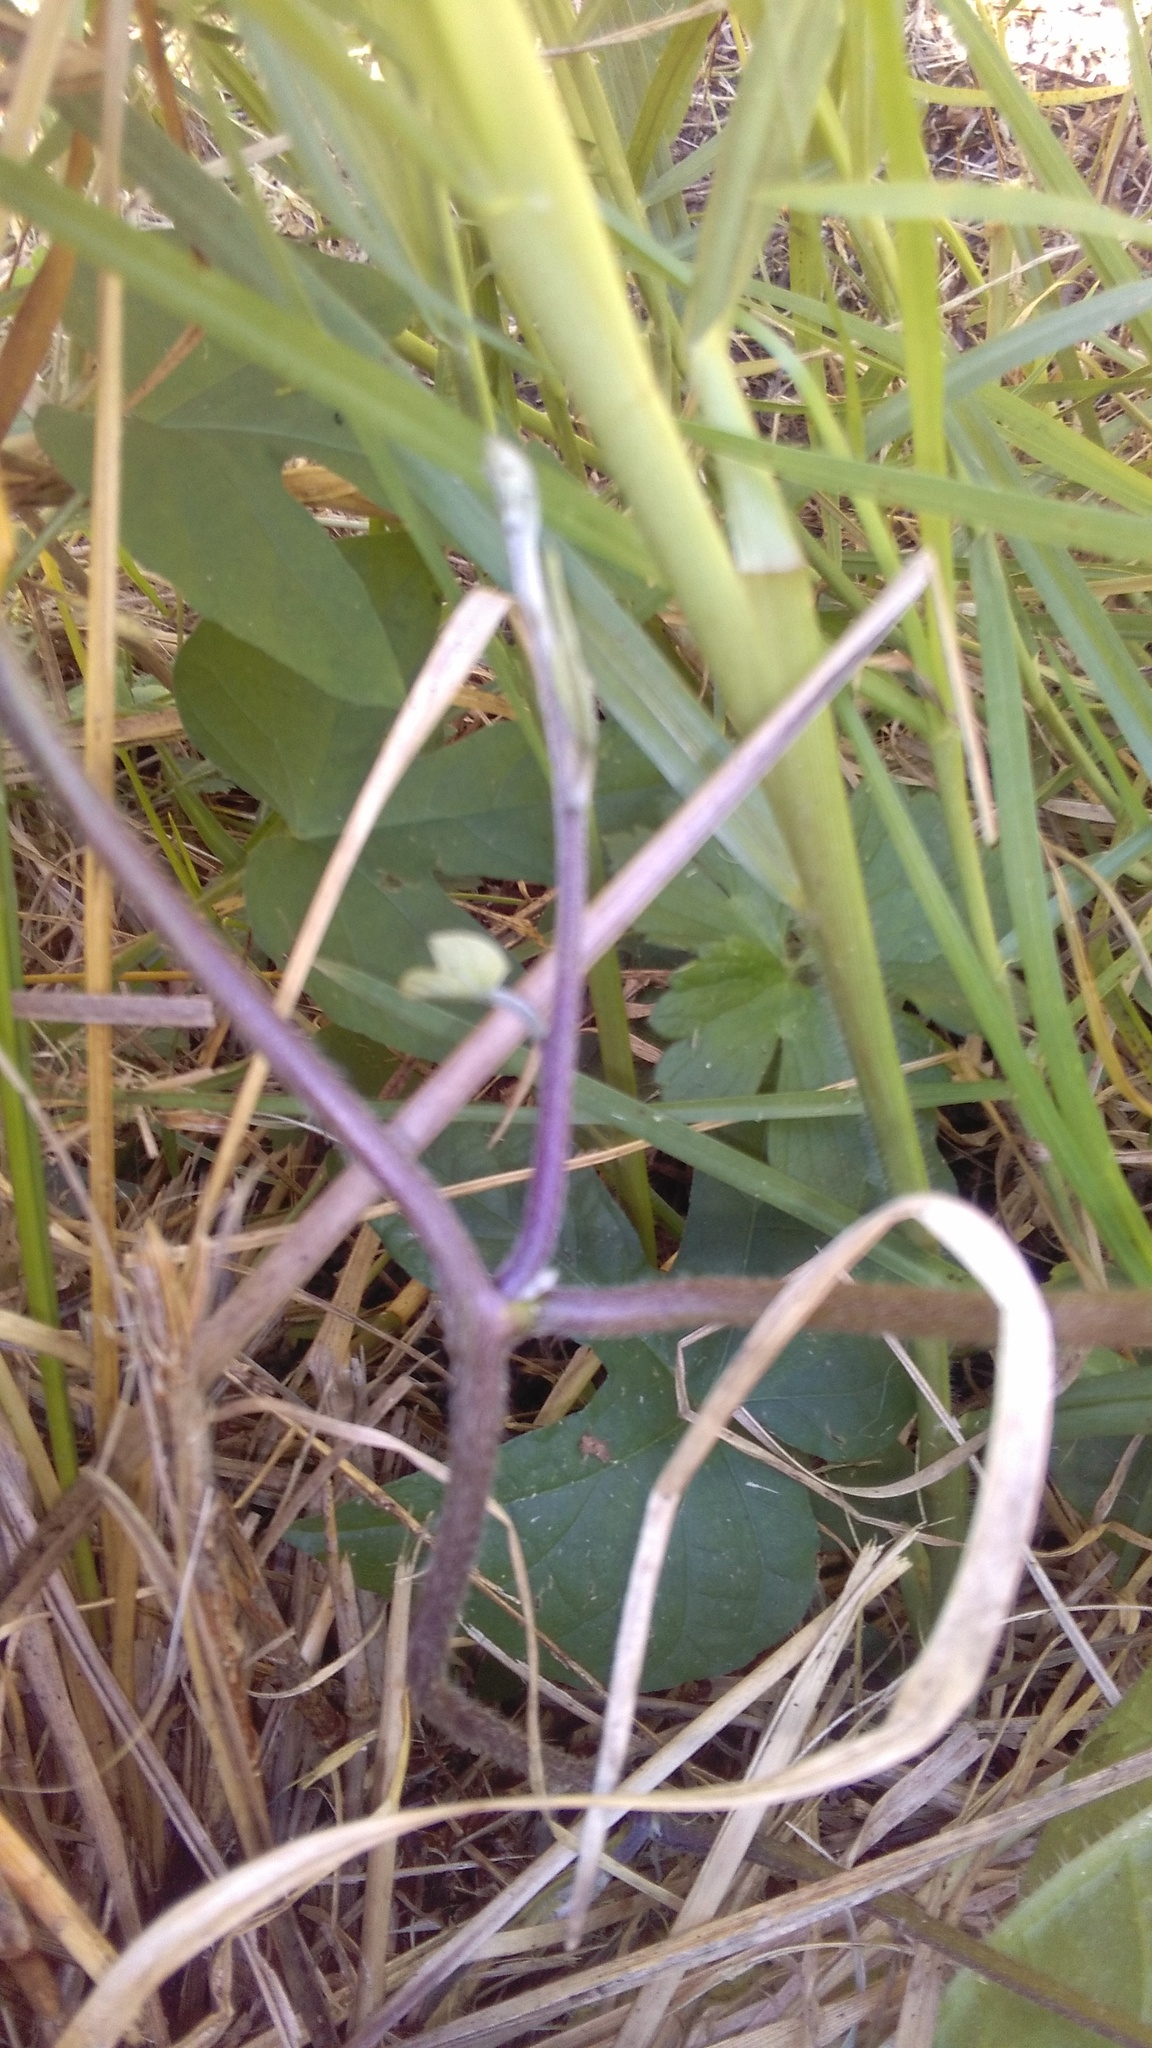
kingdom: Plantae
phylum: Tracheophyta
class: Magnoliopsida
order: Solanales
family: Convolvulaceae
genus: Ipomoea
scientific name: Ipomoea indica
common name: Blue dawnflower
